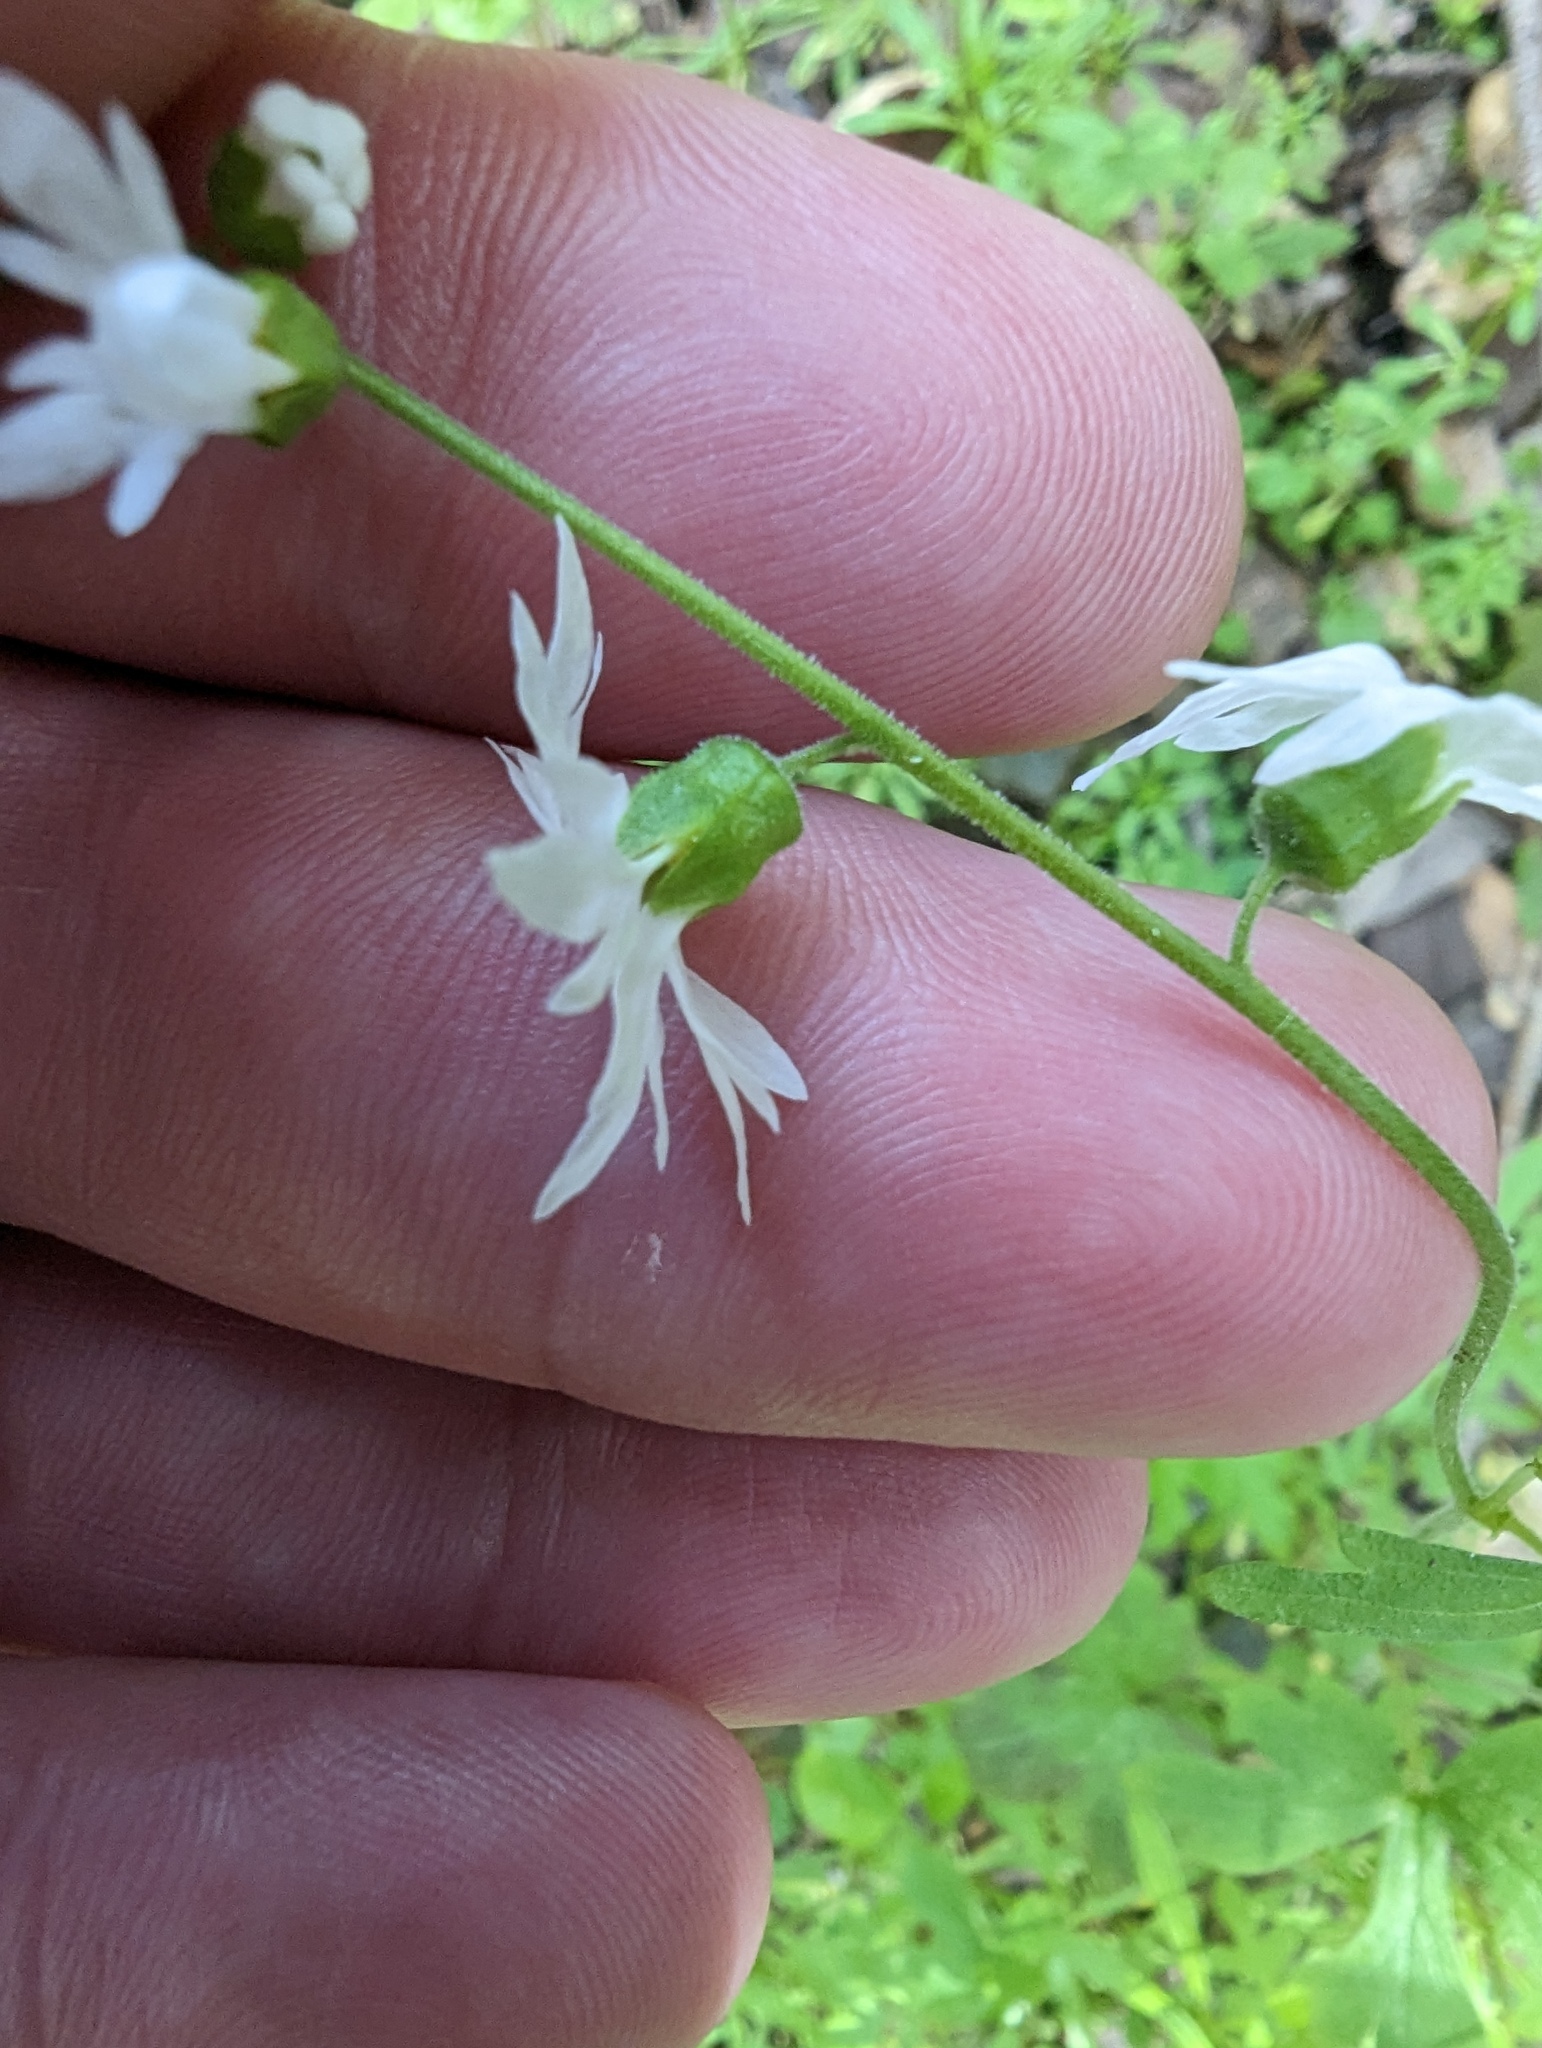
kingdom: Plantae
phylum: Tracheophyta
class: Magnoliopsida
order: Saxifragales
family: Saxifragaceae
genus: Lithophragma
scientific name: Lithophragma heterophyllum
